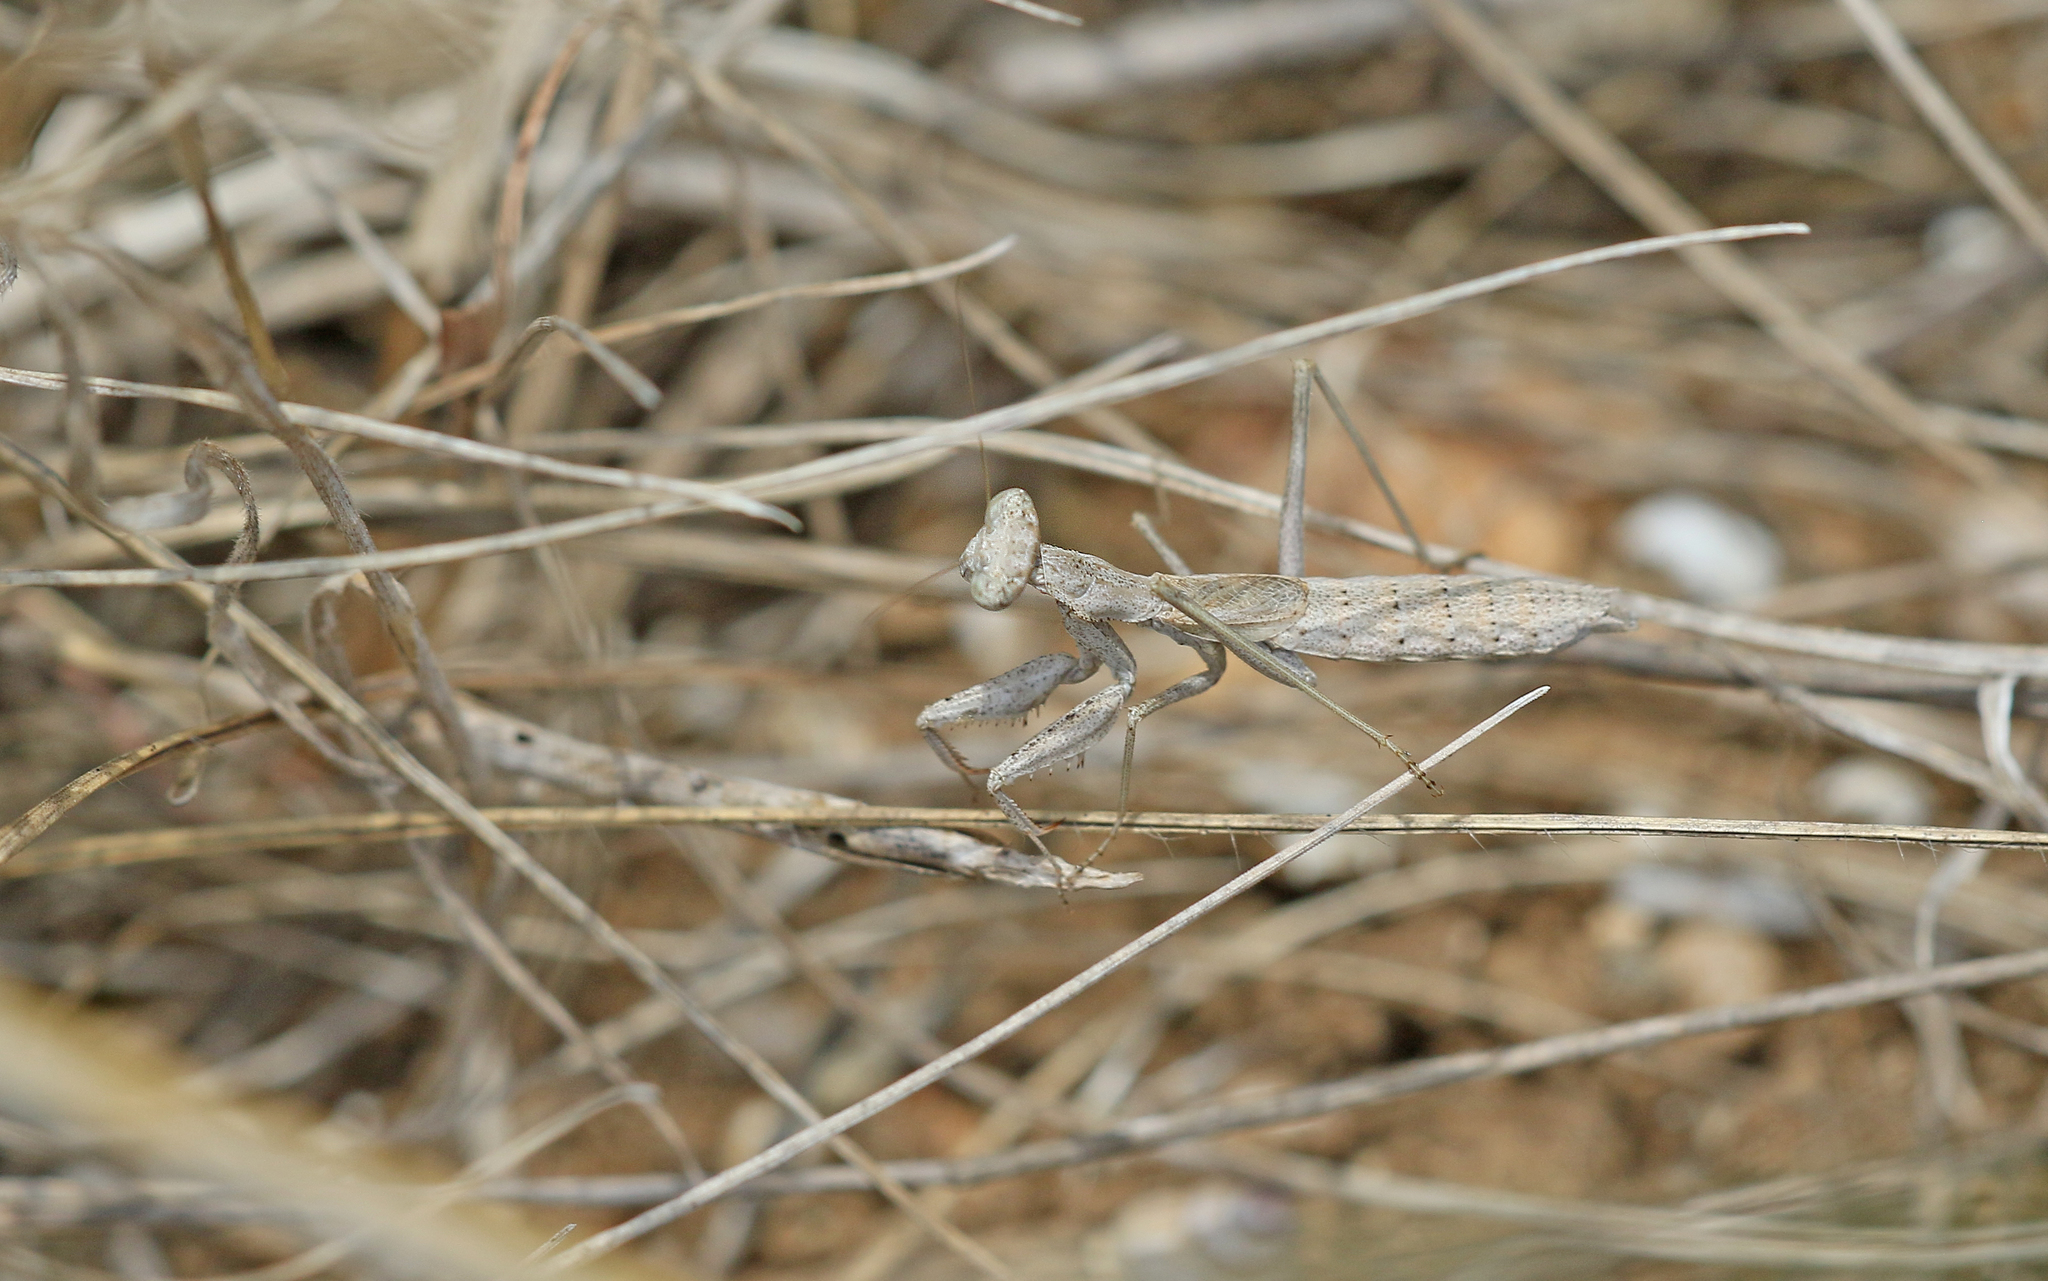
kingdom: Animalia
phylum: Arthropoda
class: Insecta
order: Mantodea
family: Amelidae
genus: Ameles
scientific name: Ameles decolor
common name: Dwarf mantis
